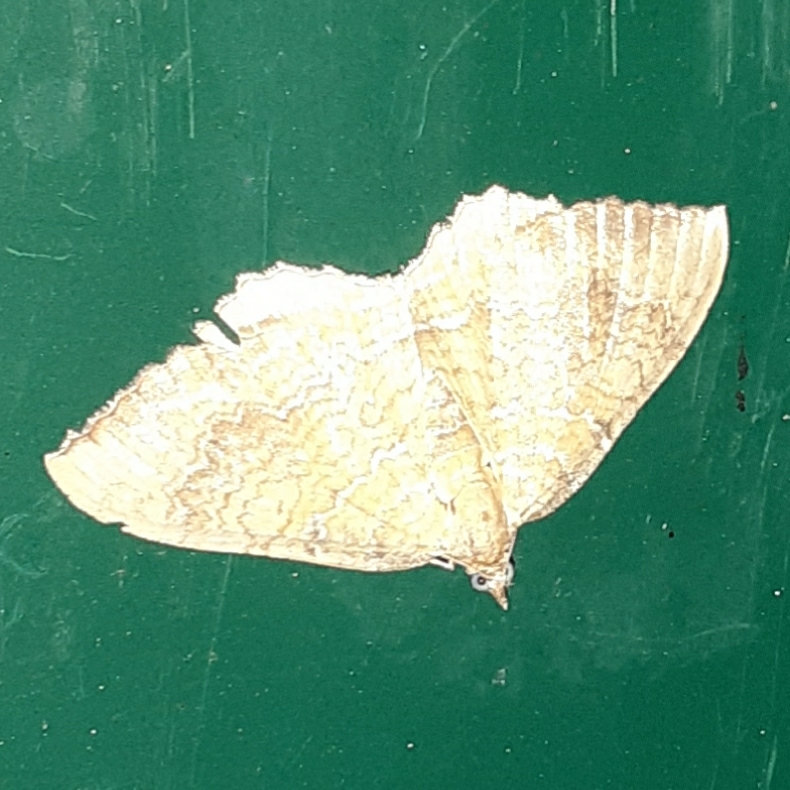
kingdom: Animalia
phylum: Arthropoda
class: Insecta
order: Lepidoptera
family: Geometridae
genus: Camptogramma
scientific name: Camptogramma bilineata
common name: Yellow shell
